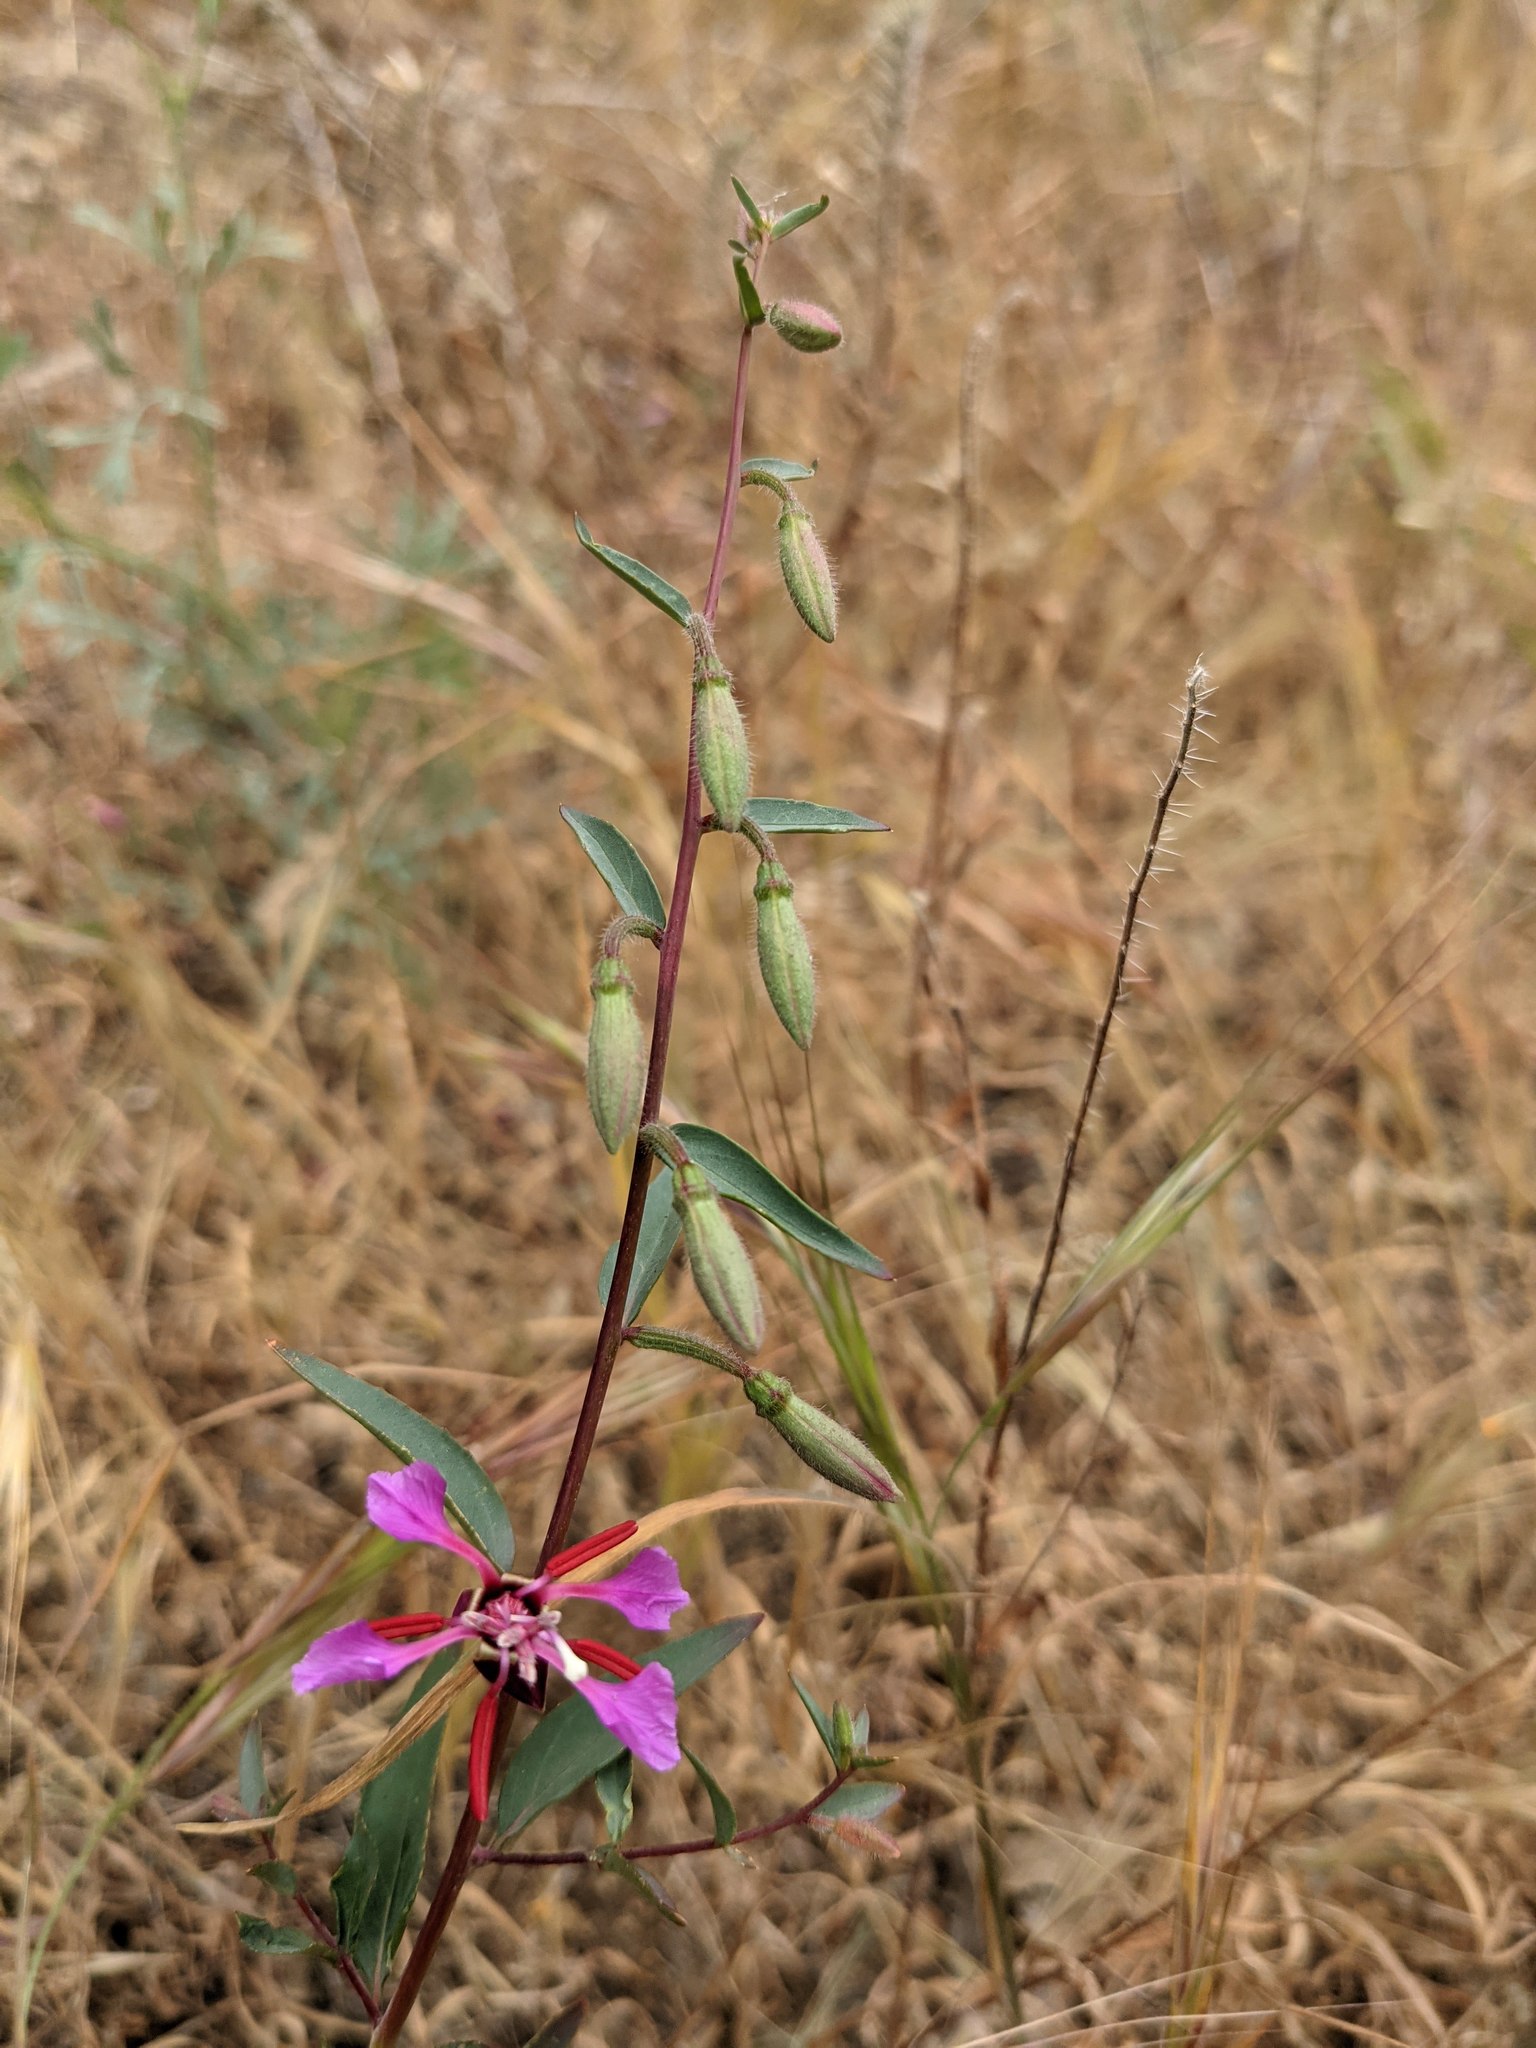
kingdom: Plantae
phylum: Tracheophyta
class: Magnoliopsida
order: Myrtales
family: Onagraceae
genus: Clarkia
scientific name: Clarkia unguiculata
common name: Clarkia
